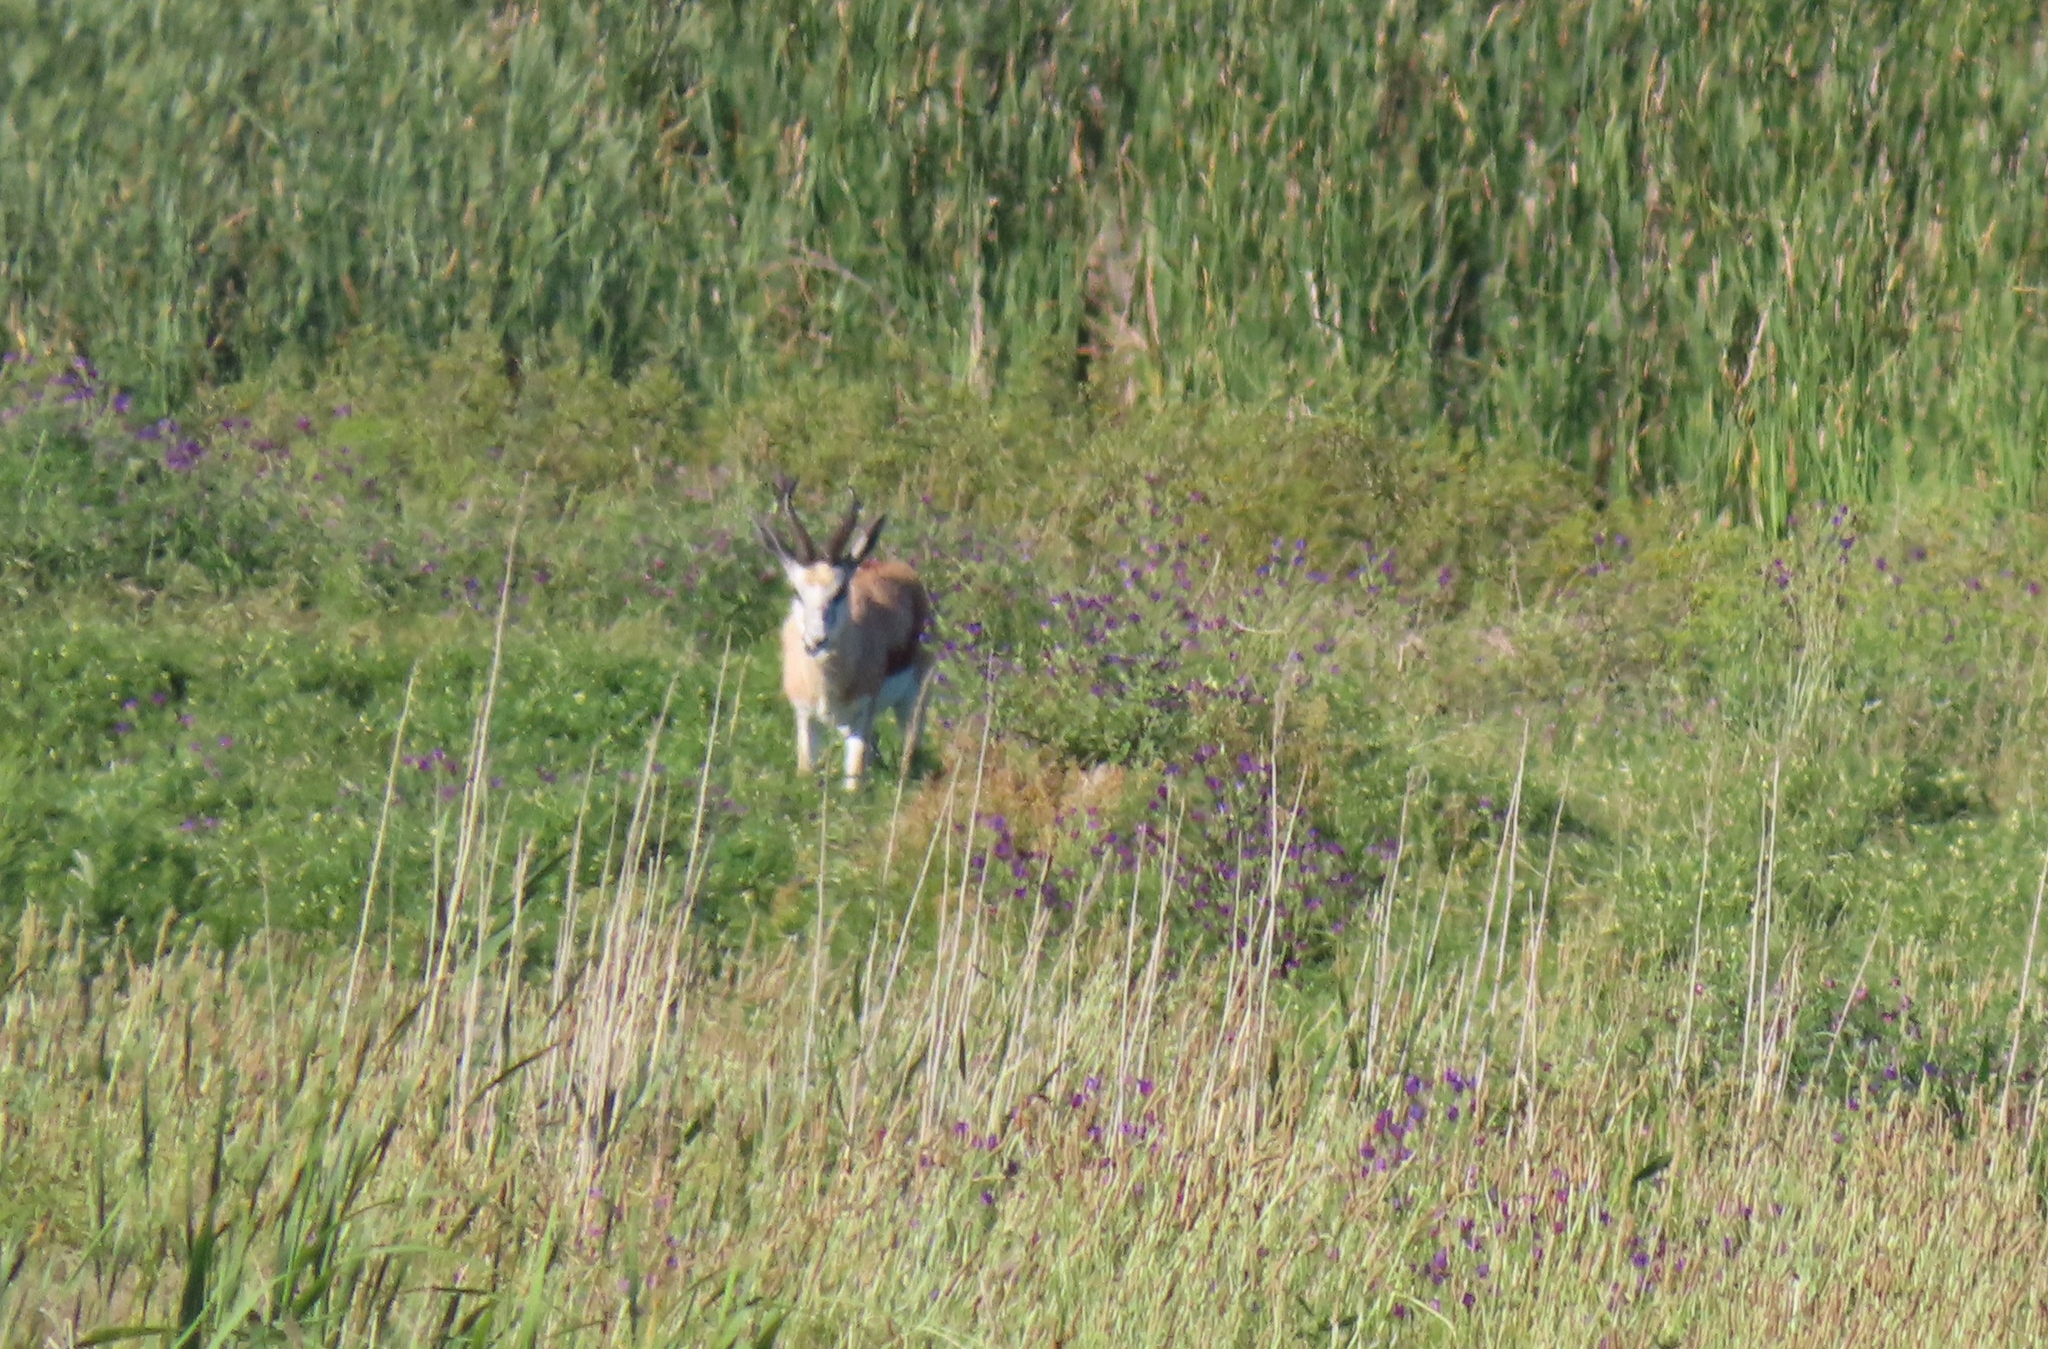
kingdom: Animalia
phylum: Chordata
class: Mammalia
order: Artiodactyla
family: Bovidae
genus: Antidorcas
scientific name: Antidorcas marsupialis
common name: Springbok
